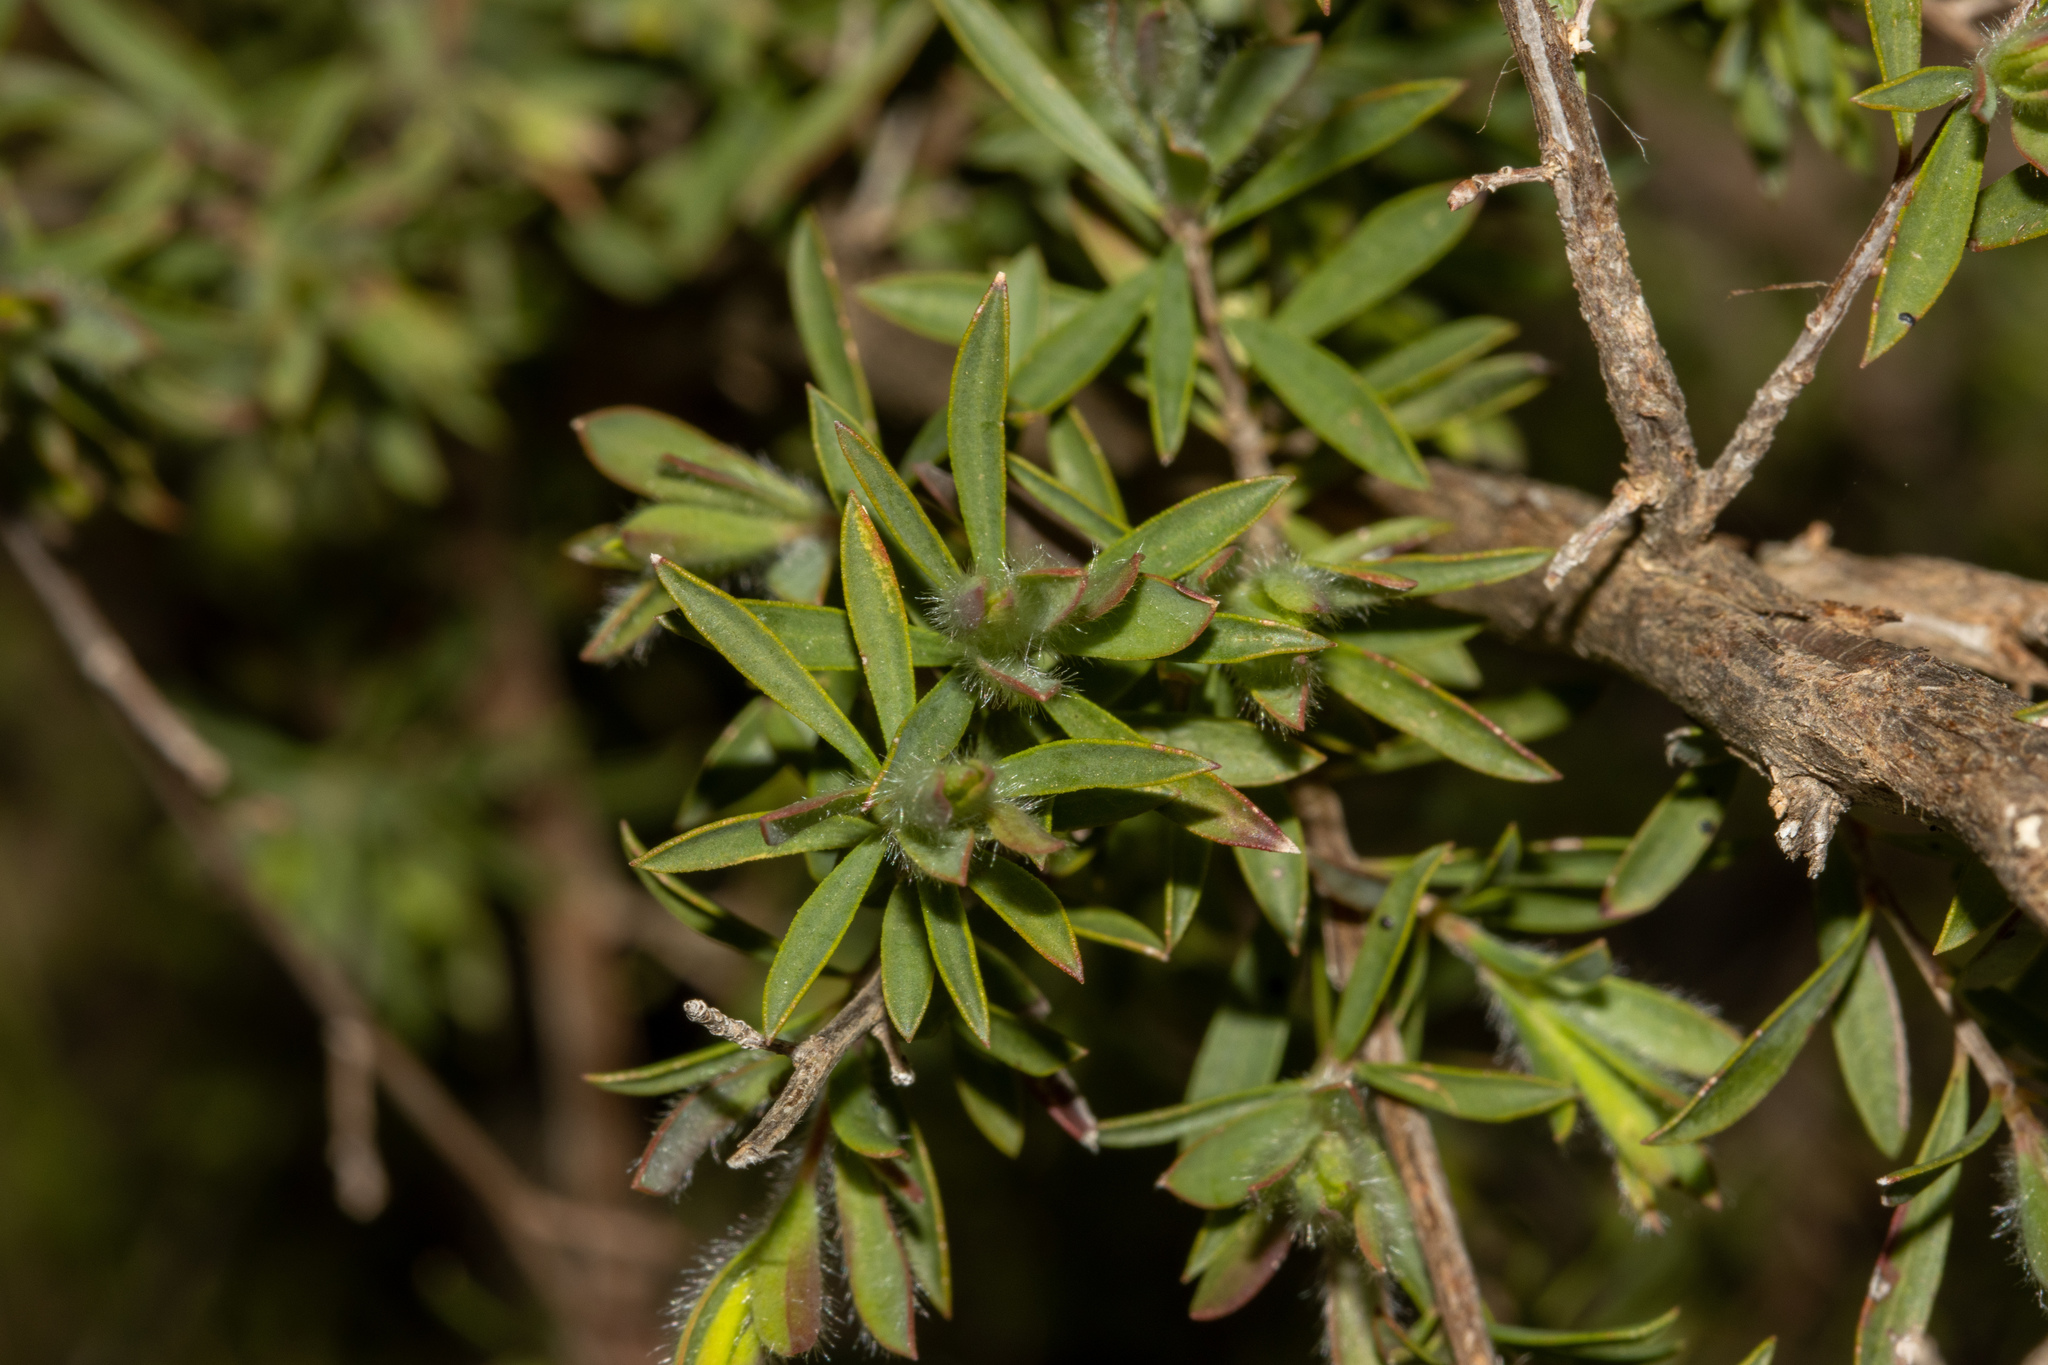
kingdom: Plantae
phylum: Tracheophyta
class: Magnoliopsida
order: Myrtales
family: Myrtaceae
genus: Leptospermum
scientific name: Leptospermum myrsinoides
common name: Heath teatree
